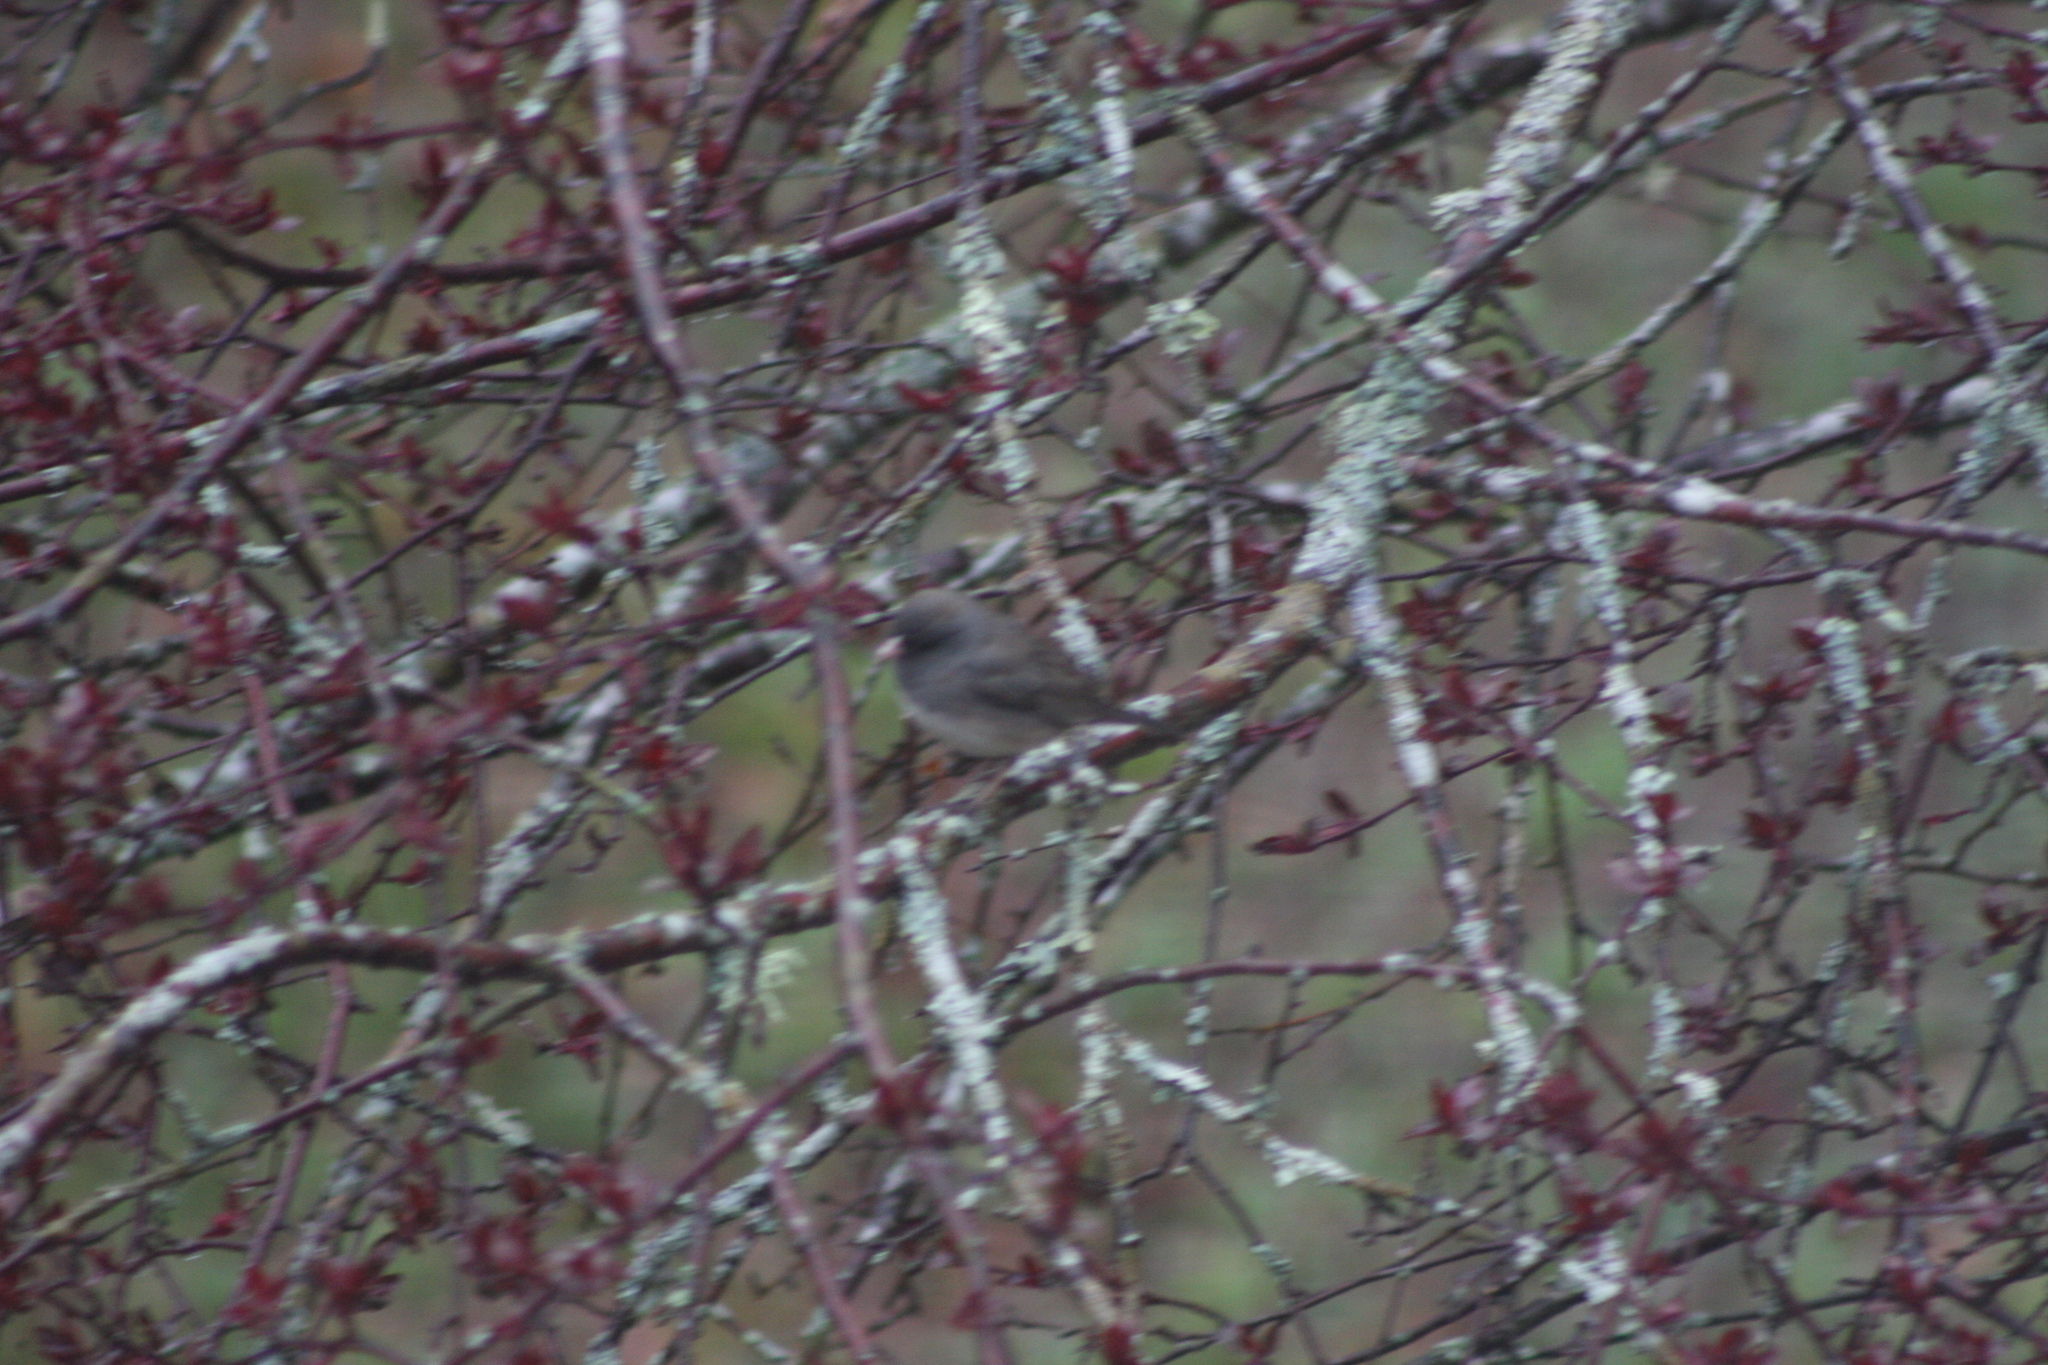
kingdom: Animalia
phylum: Chordata
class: Aves
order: Passeriformes
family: Passerellidae
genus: Junco
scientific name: Junco hyemalis
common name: Dark-eyed junco
